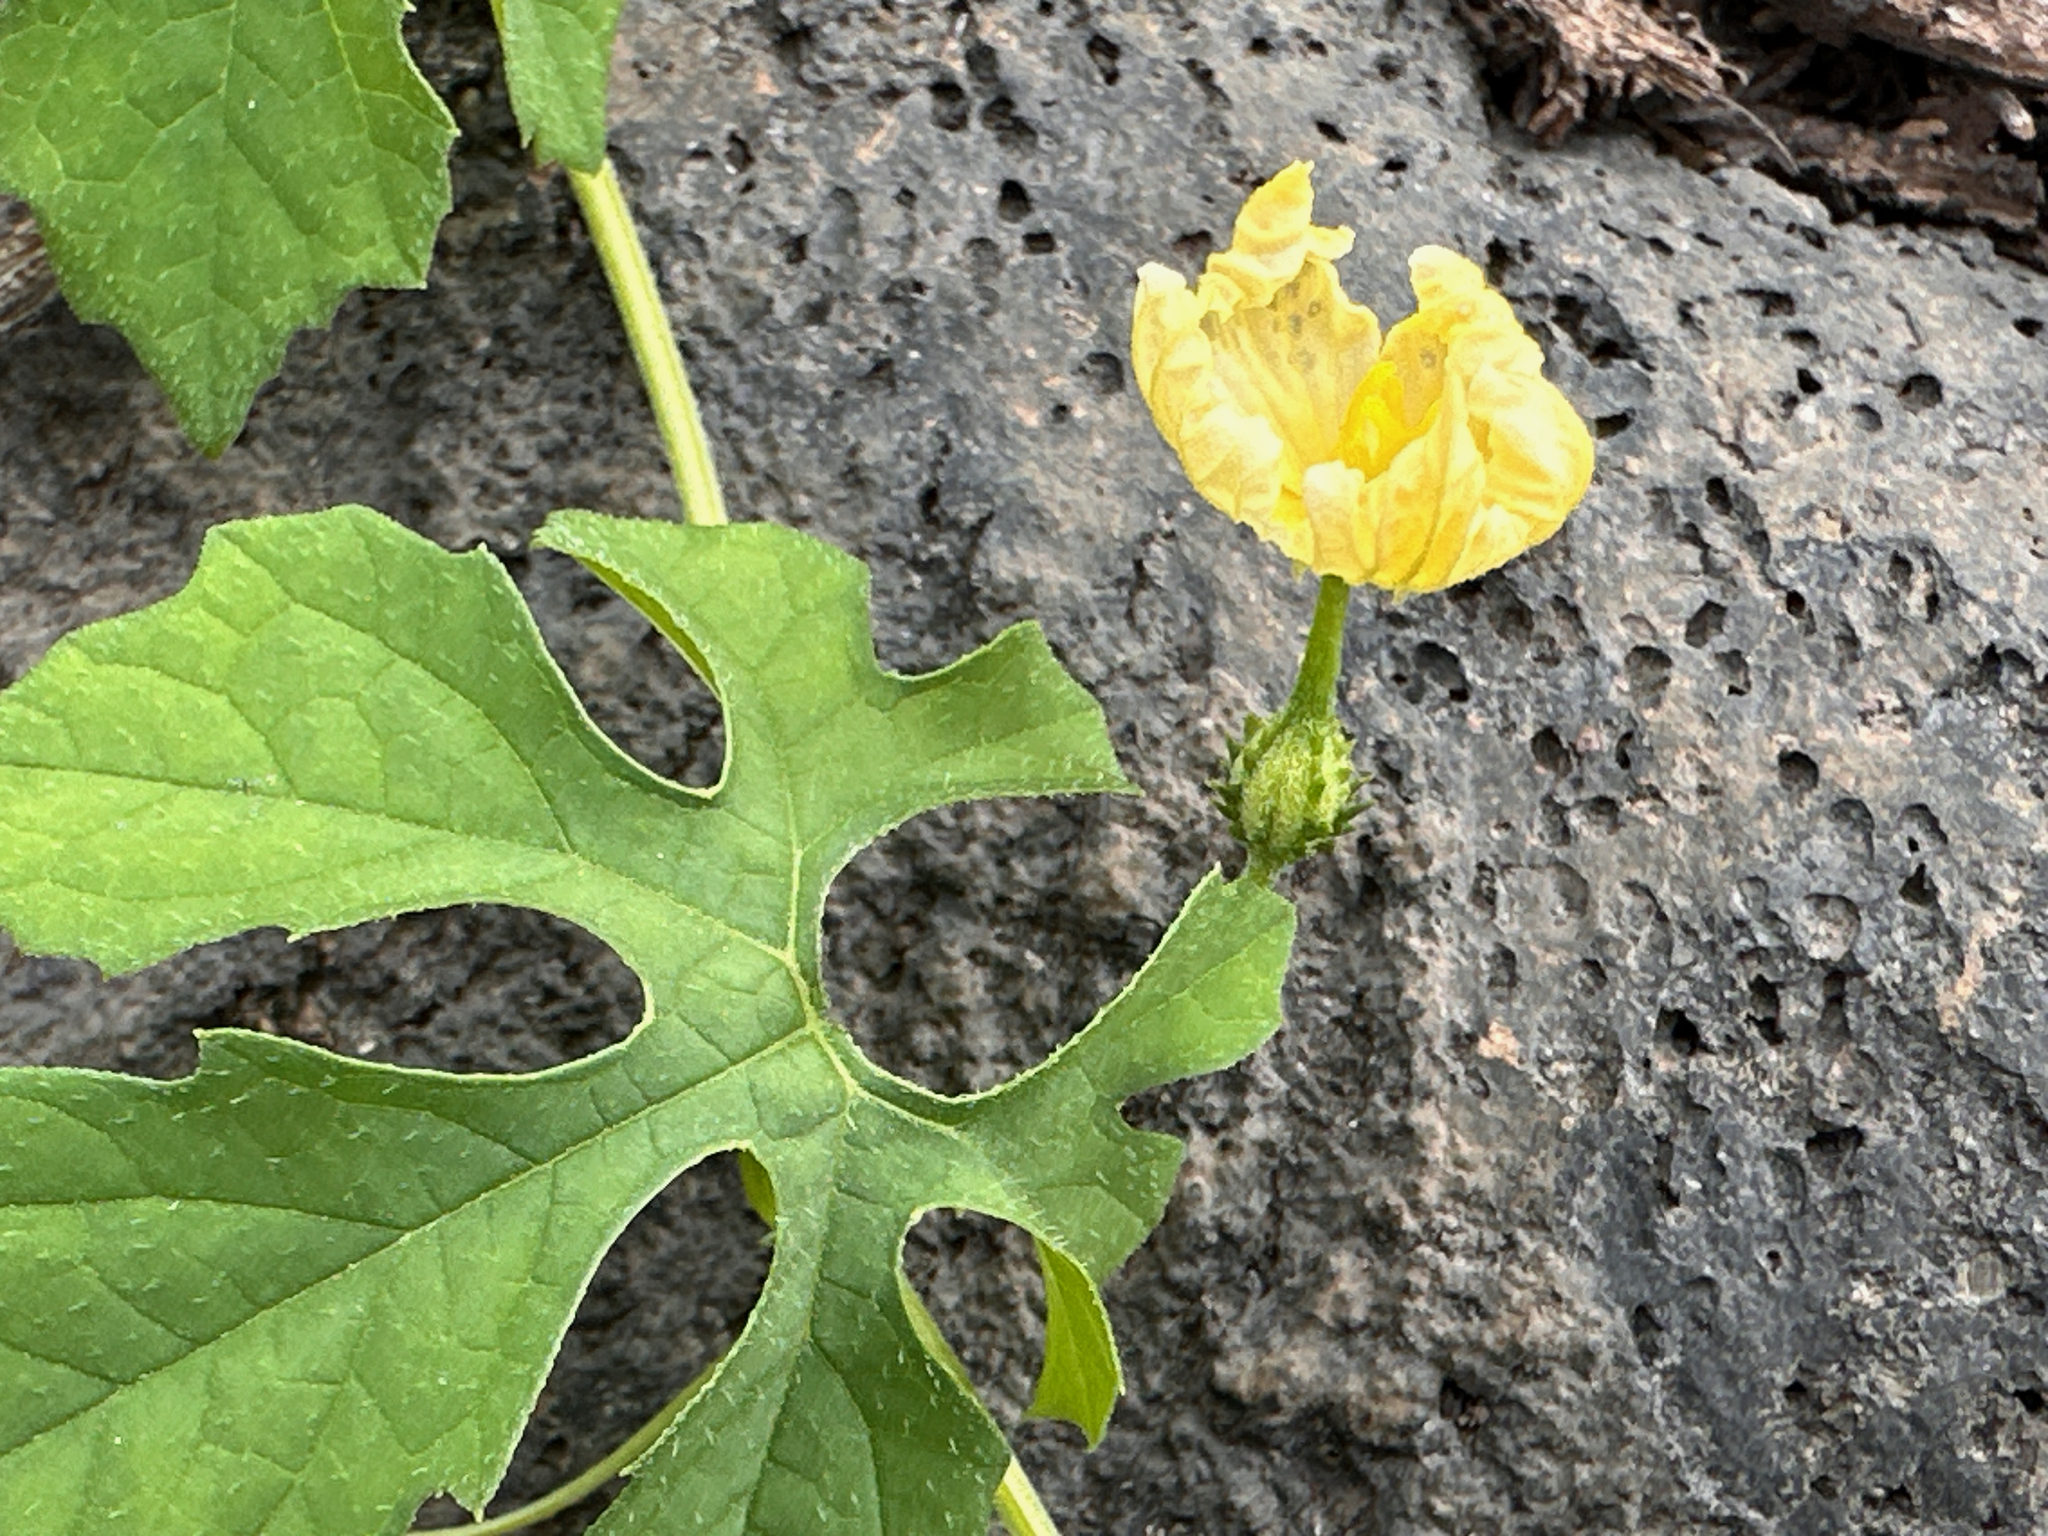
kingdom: Plantae
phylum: Tracheophyta
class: Magnoliopsida
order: Cucurbitales
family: Cucurbitaceae
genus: Momordica
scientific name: Momordica charantia
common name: Balsampear
